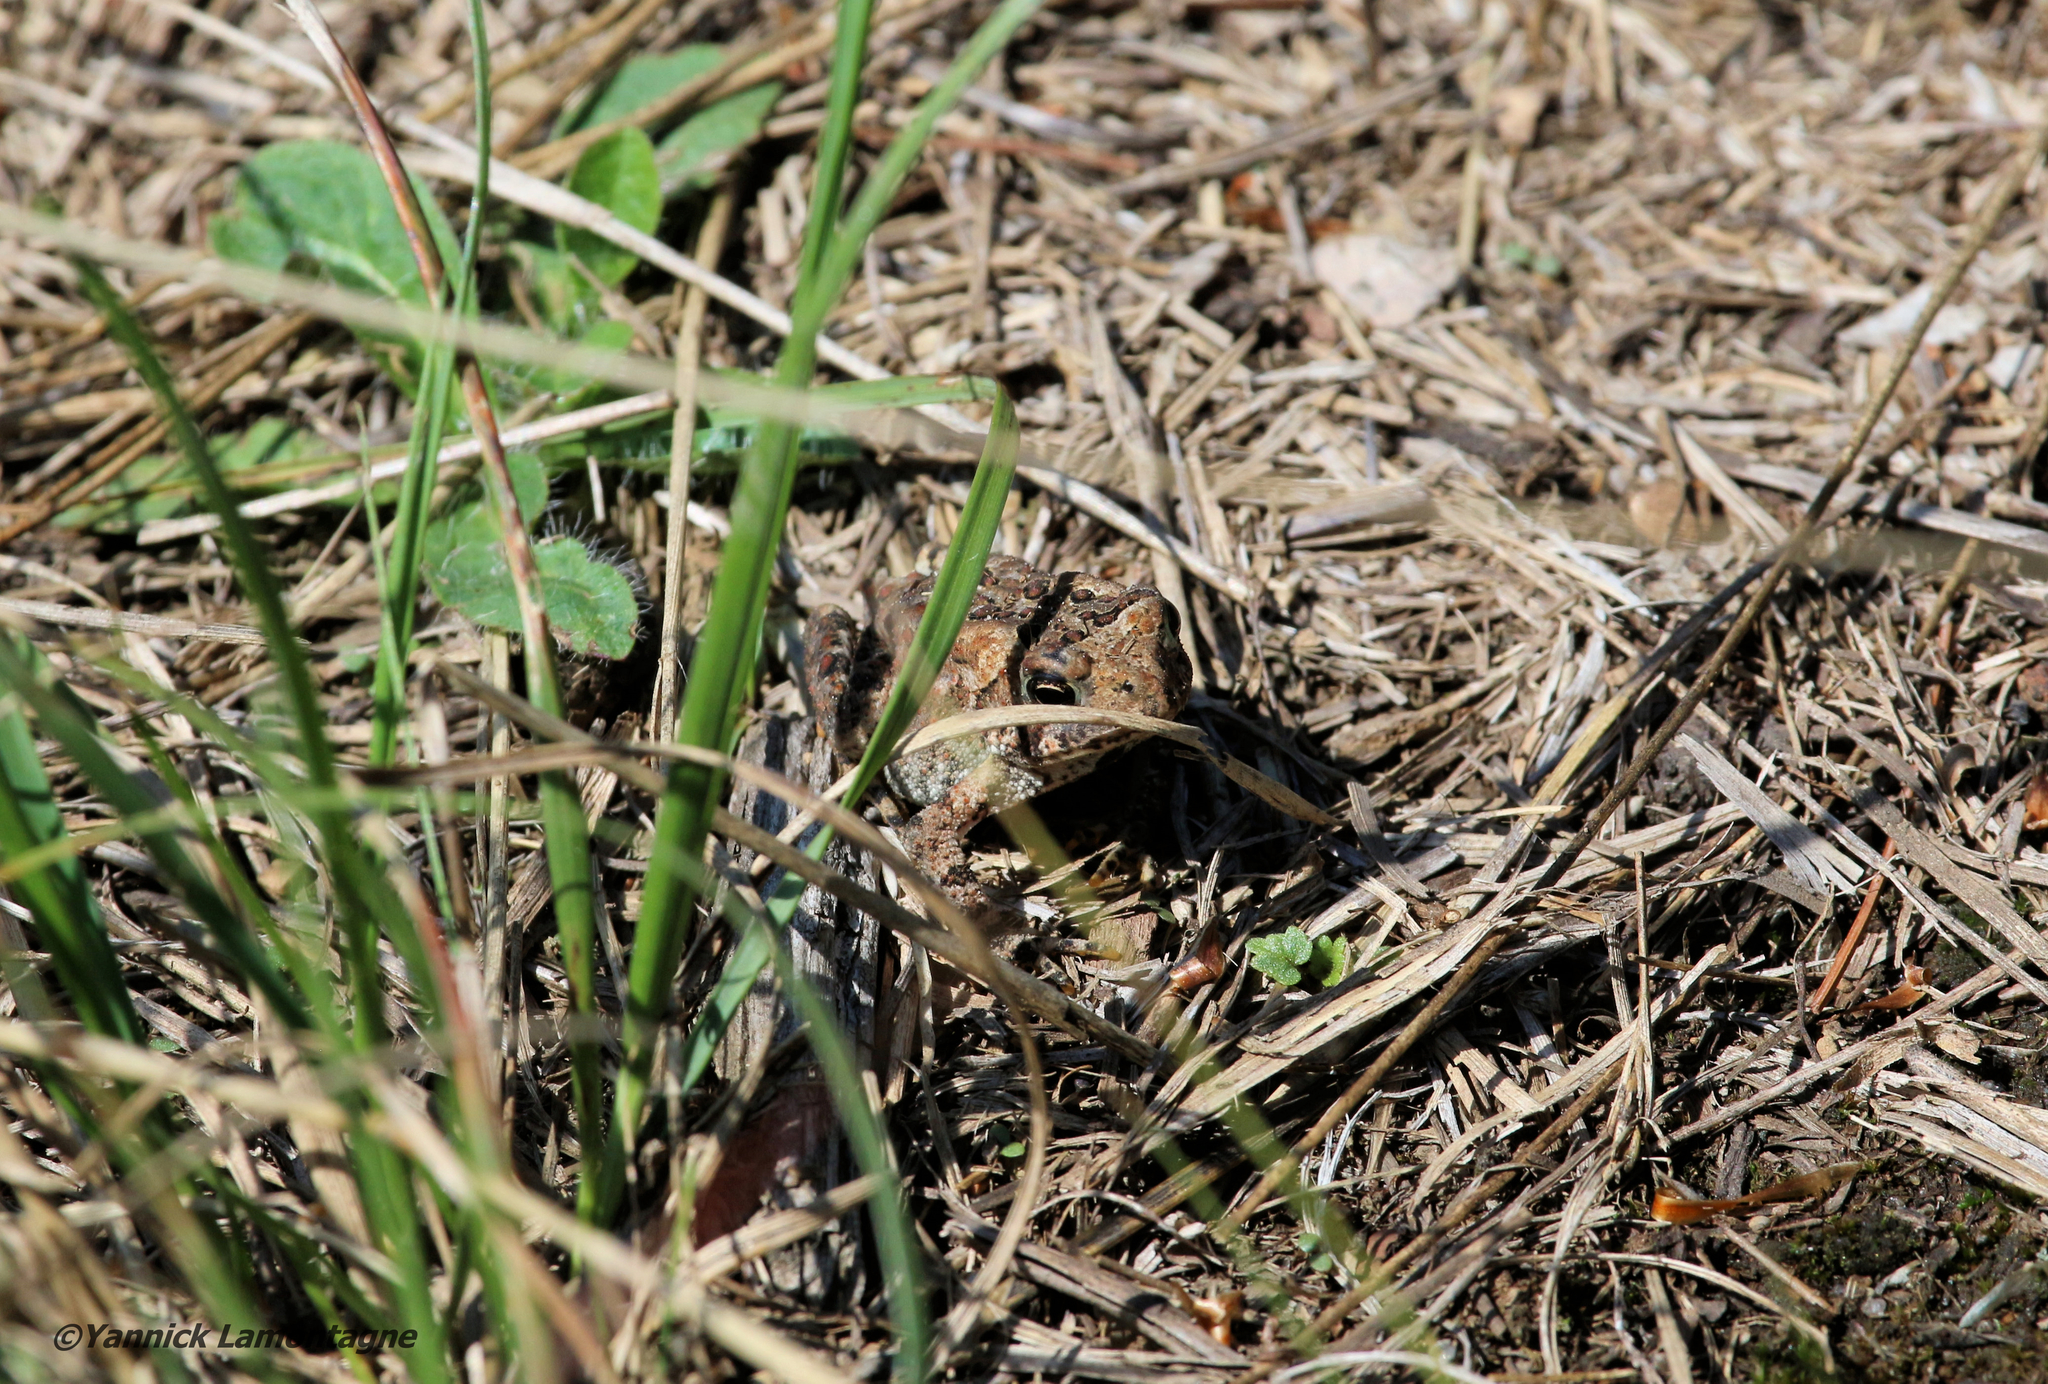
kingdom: Animalia
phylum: Chordata
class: Amphibia
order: Anura
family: Bufonidae
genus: Anaxyrus
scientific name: Anaxyrus americanus
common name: American toad
